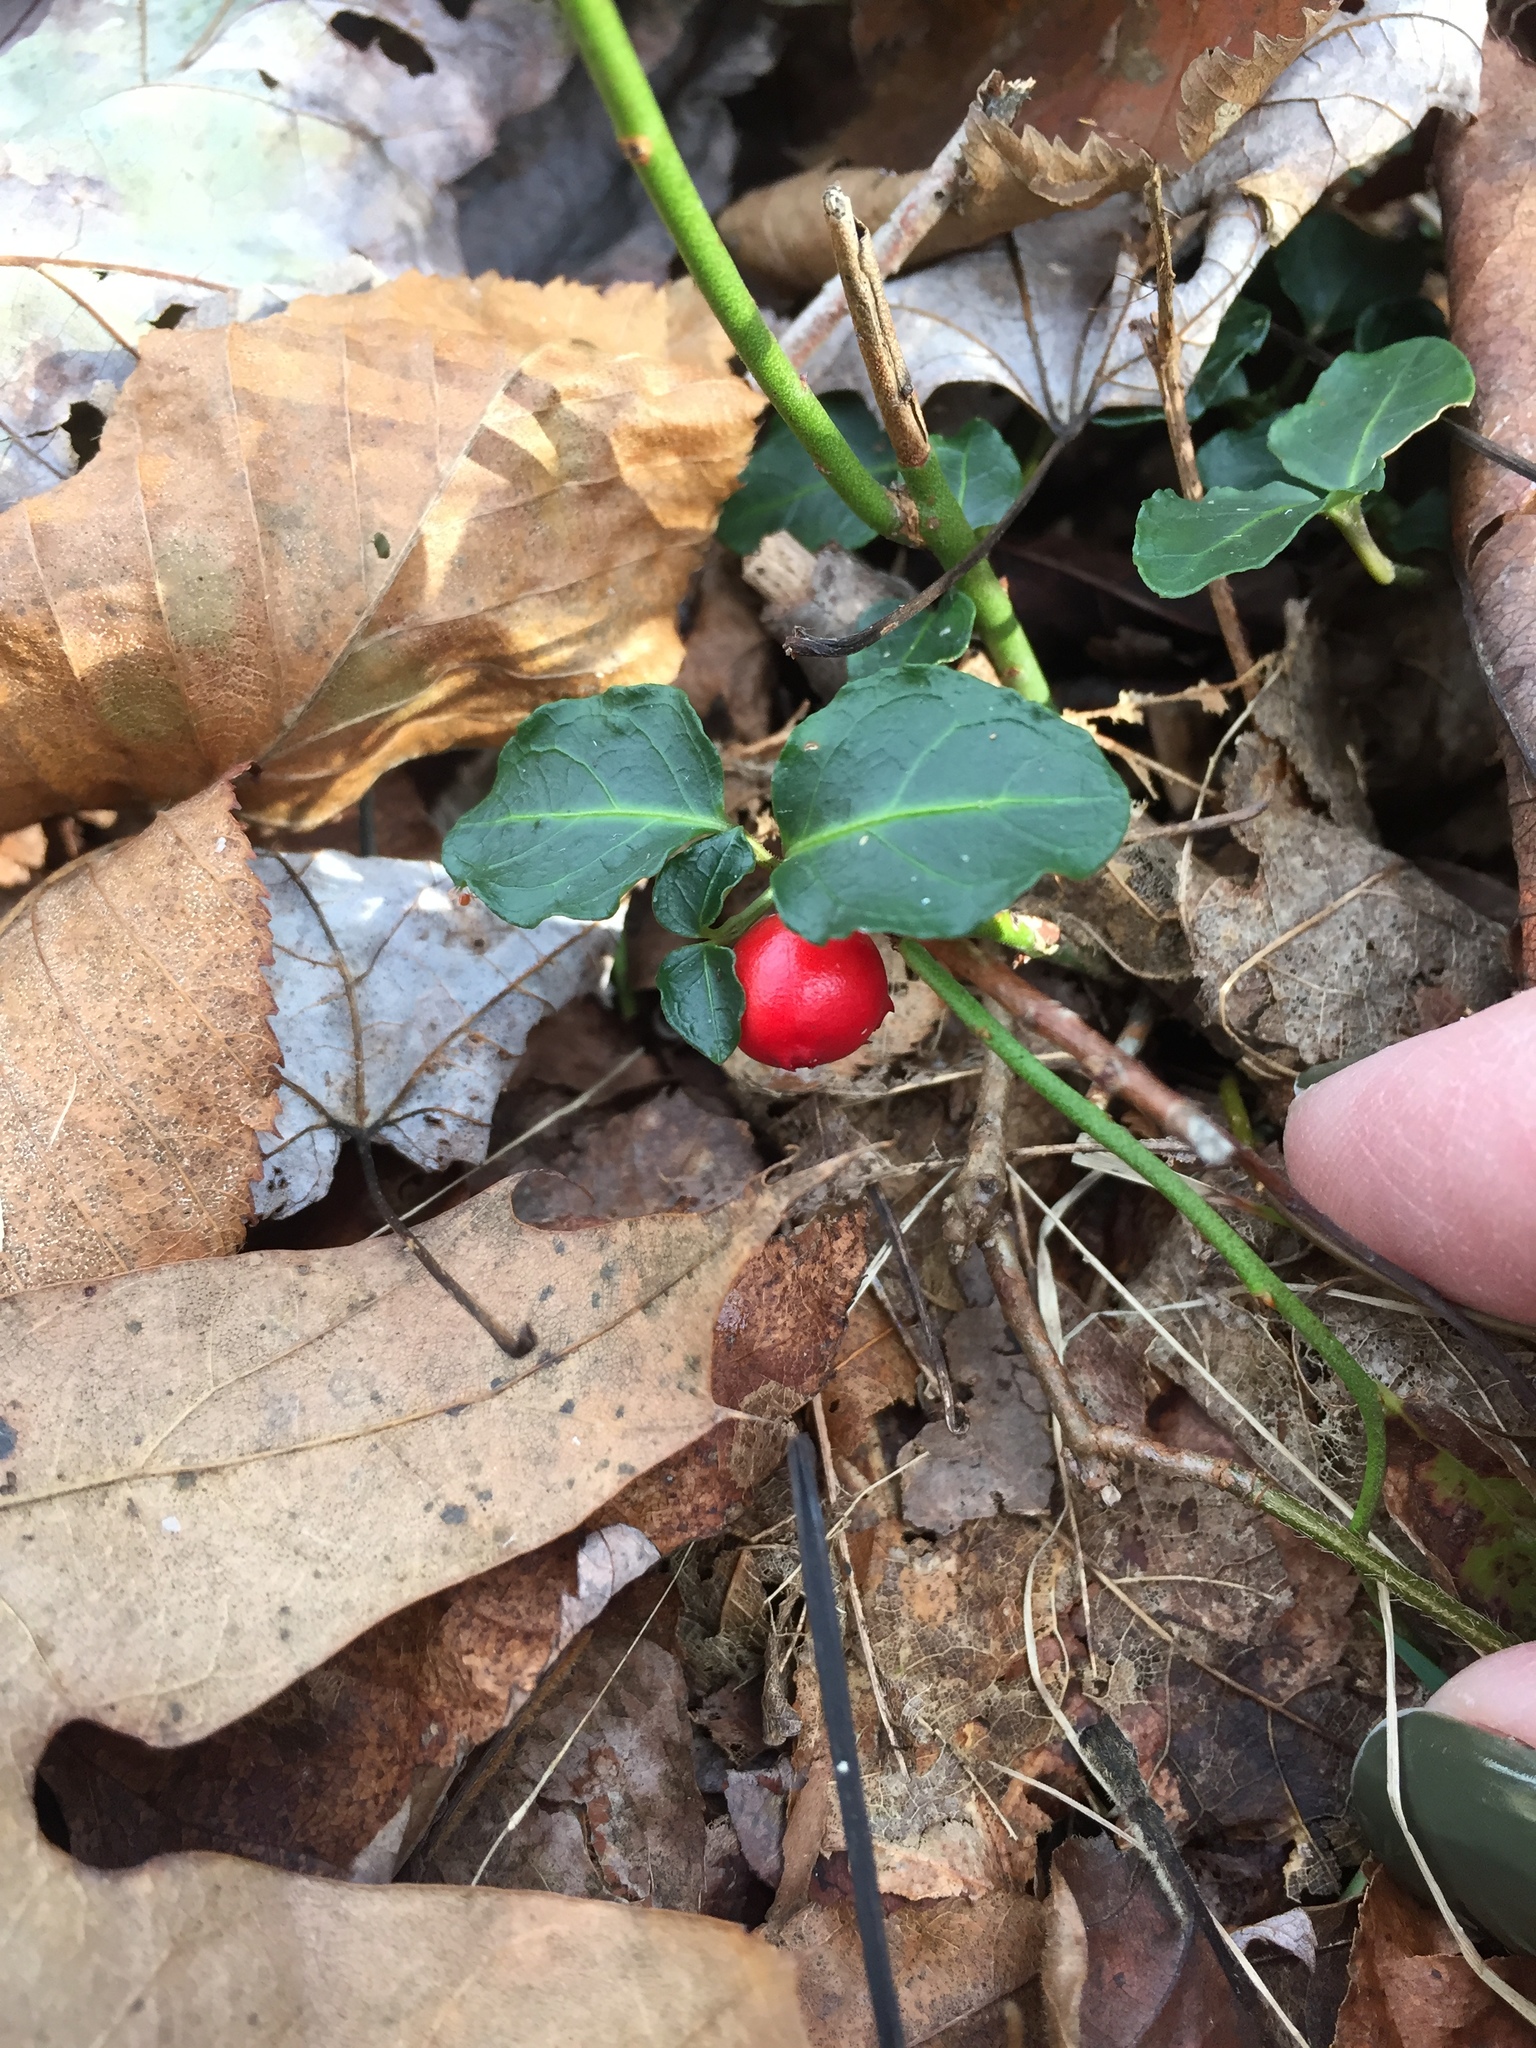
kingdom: Plantae
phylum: Tracheophyta
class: Magnoliopsida
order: Gentianales
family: Rubiaceae
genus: Mitchella
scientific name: Mitchella repens
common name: Partridge-berry
